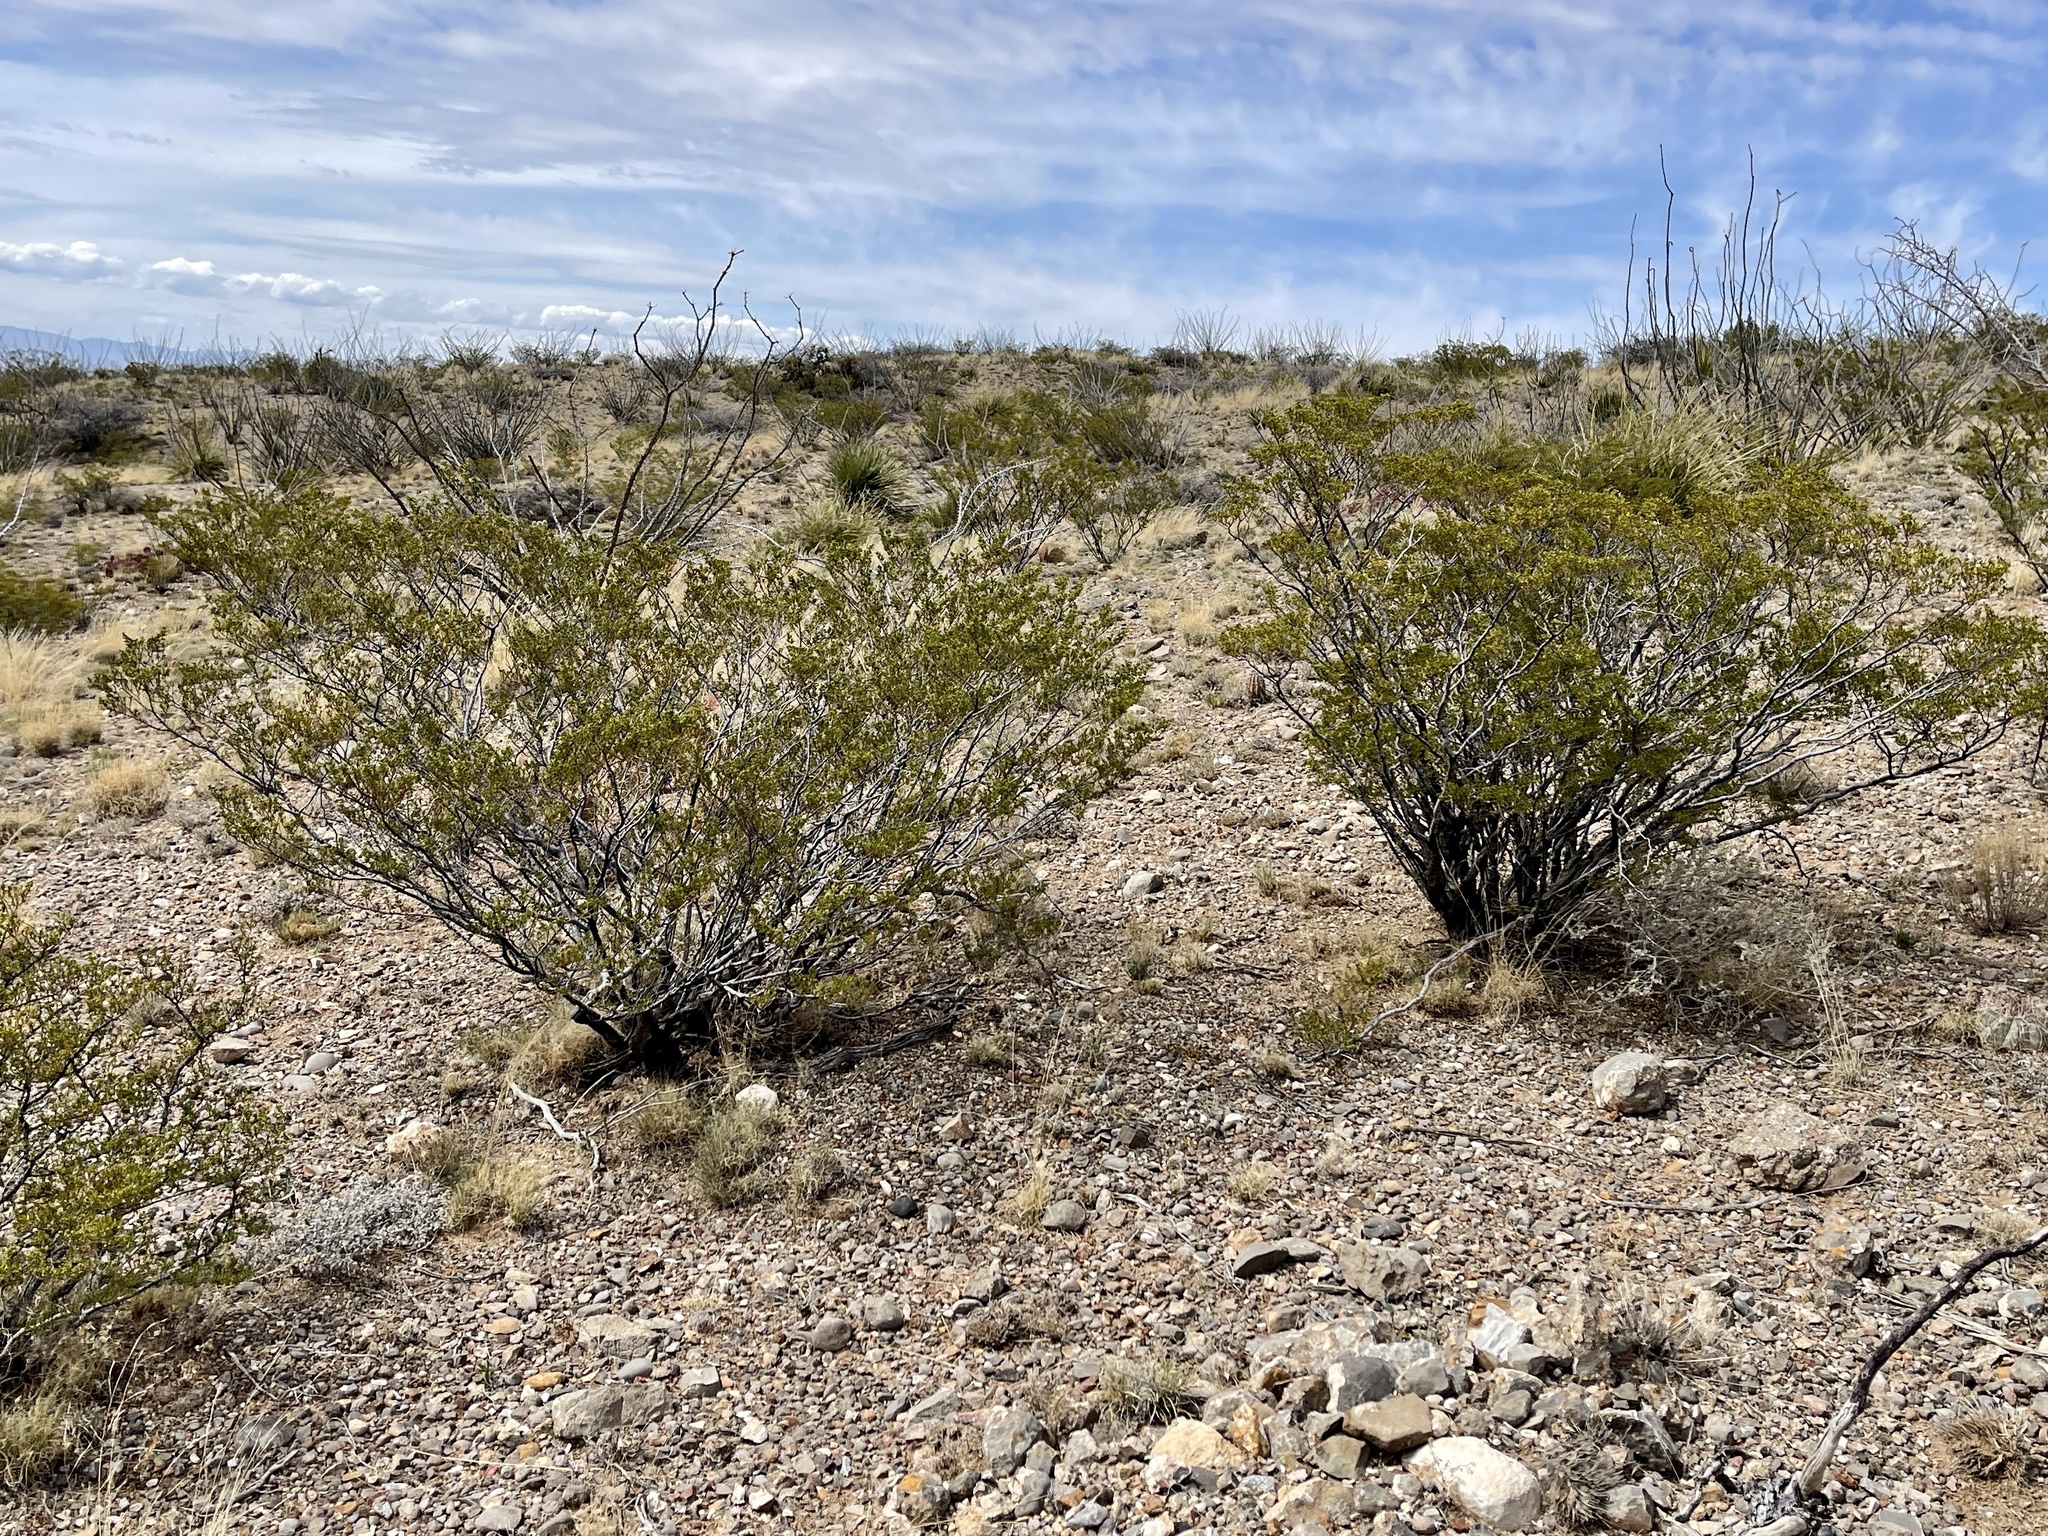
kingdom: Plantae
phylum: Tracheophyta
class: Magnoliopsida
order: Zygophyllales
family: Zygophyllaceae
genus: Larrea
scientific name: Larrea tridentata
